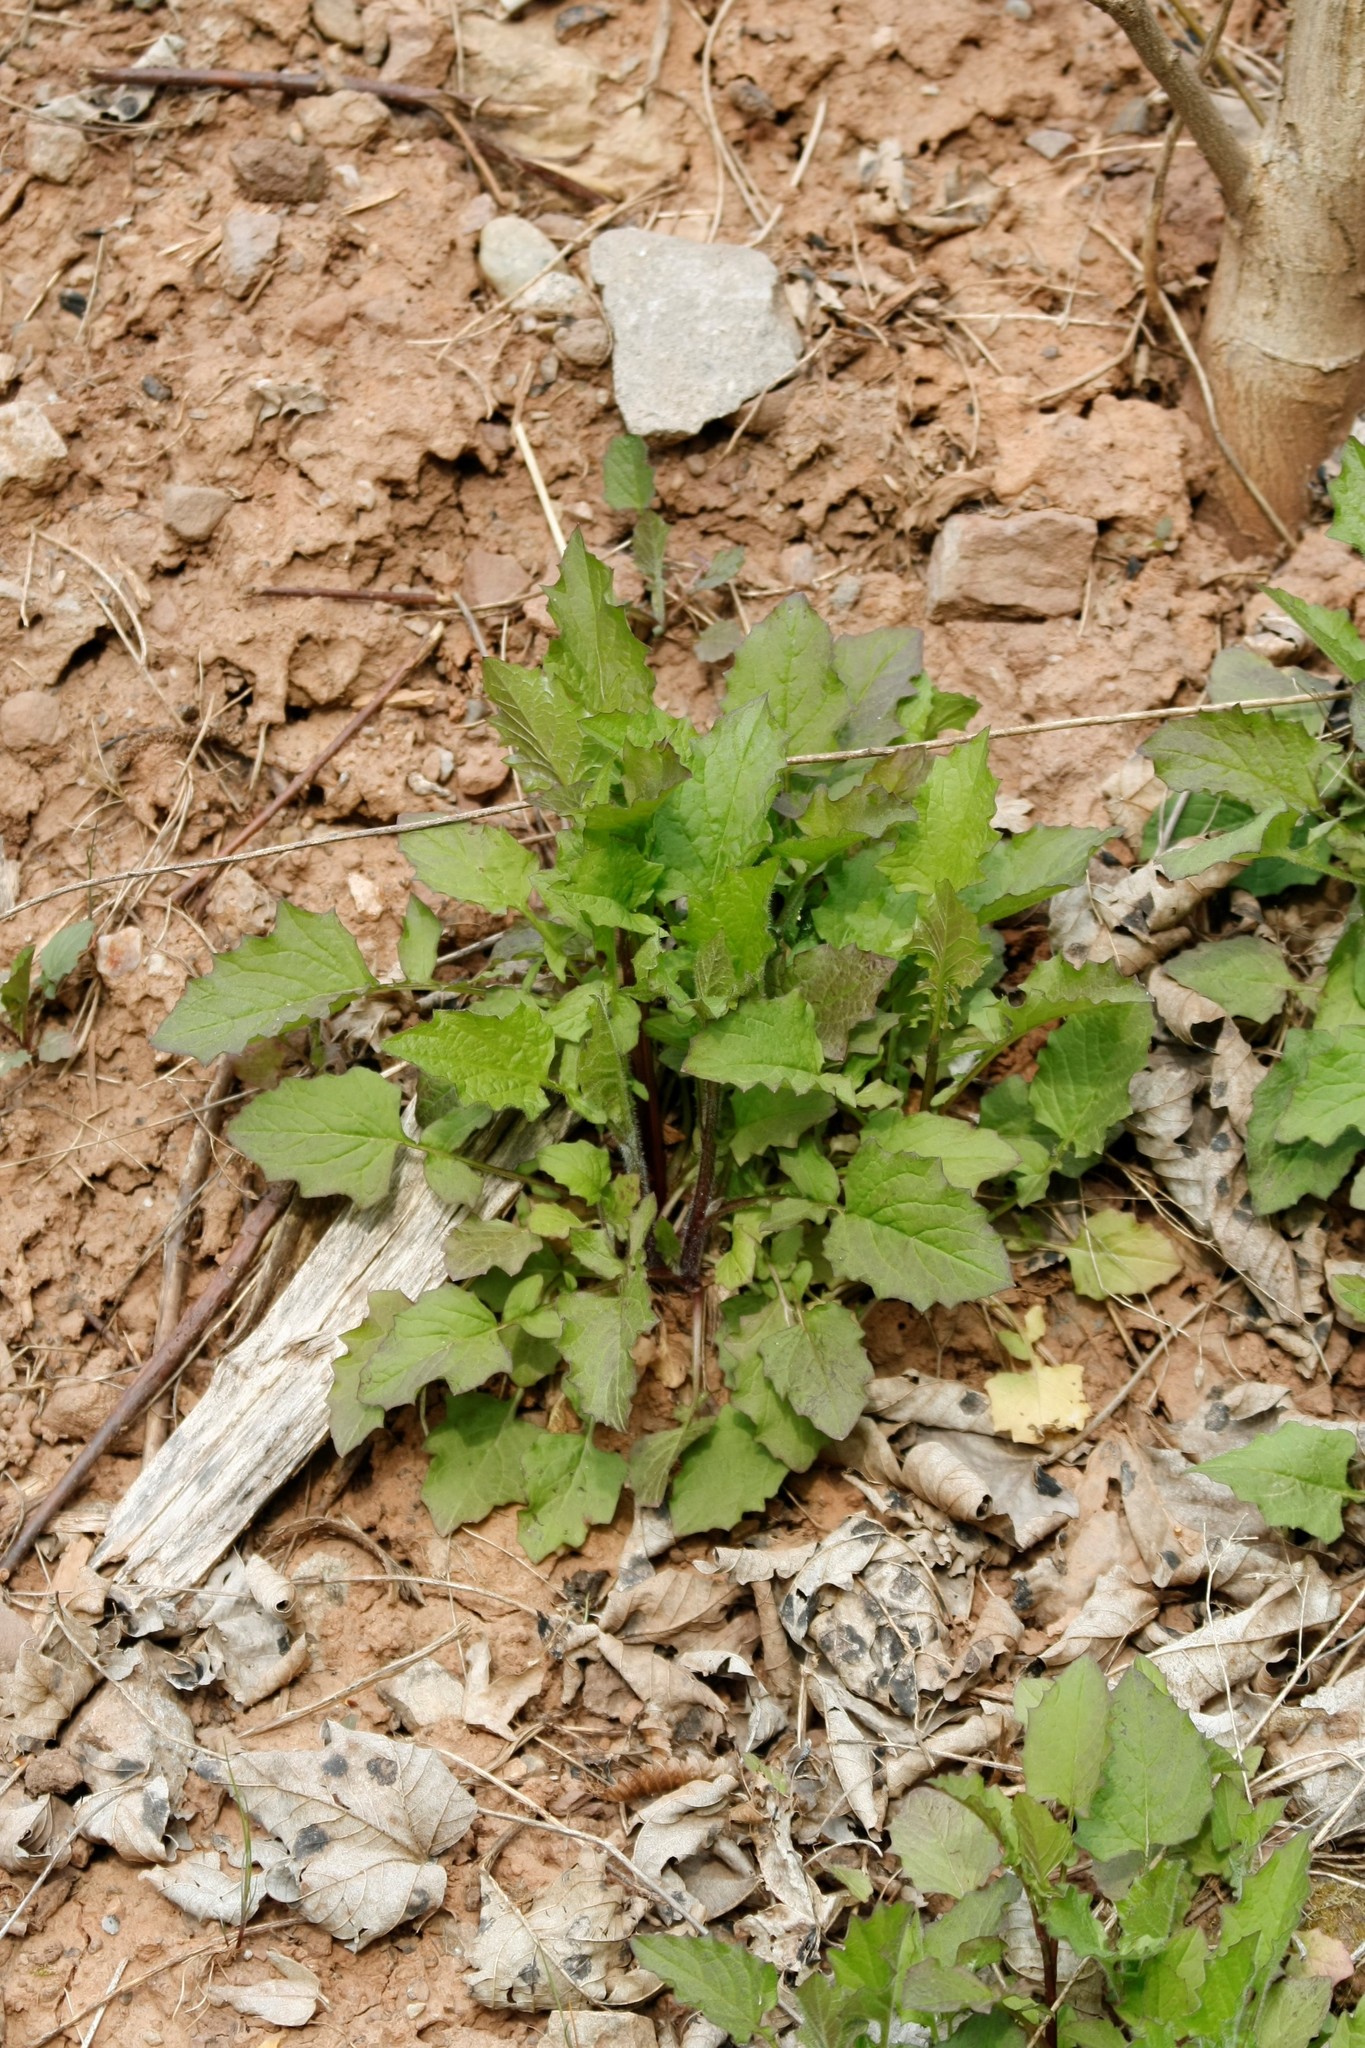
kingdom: Plantae
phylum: Tracheophyta
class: Magnoliopsida
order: Asterales
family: Asteraceae
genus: Lapsana
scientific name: Lapsana communis
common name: Nipplewort
